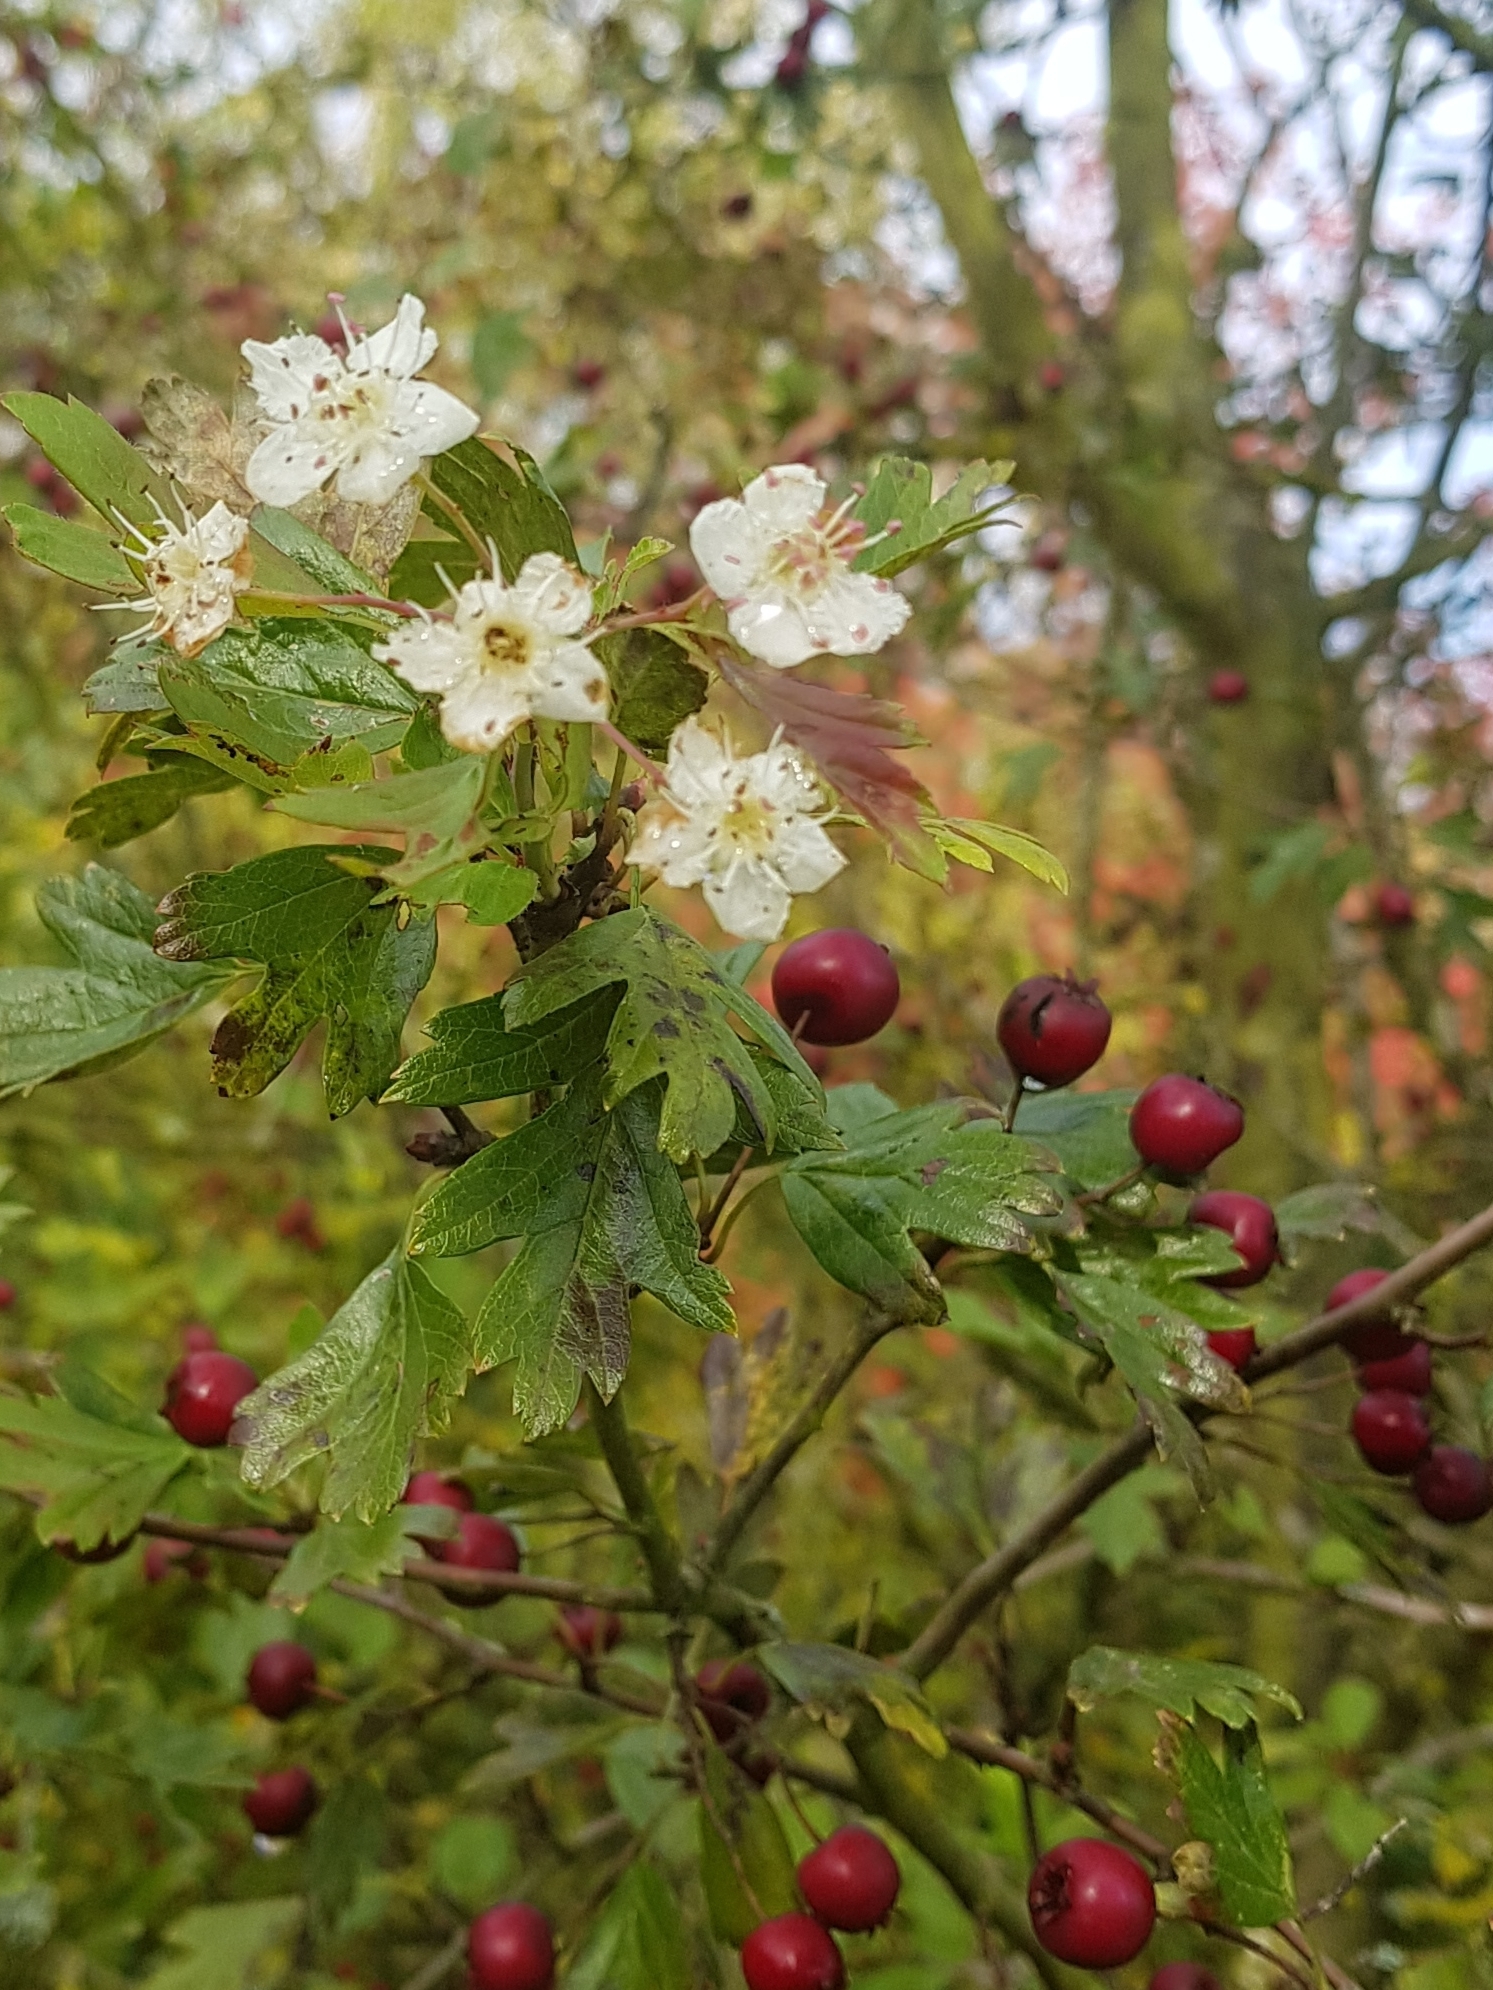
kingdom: Plantae
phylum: Tracheophyta
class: Magnoliopsida
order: Rosales
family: Rosaceae
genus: Crataegus
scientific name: Crataegus monogyna
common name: Hawthorn
